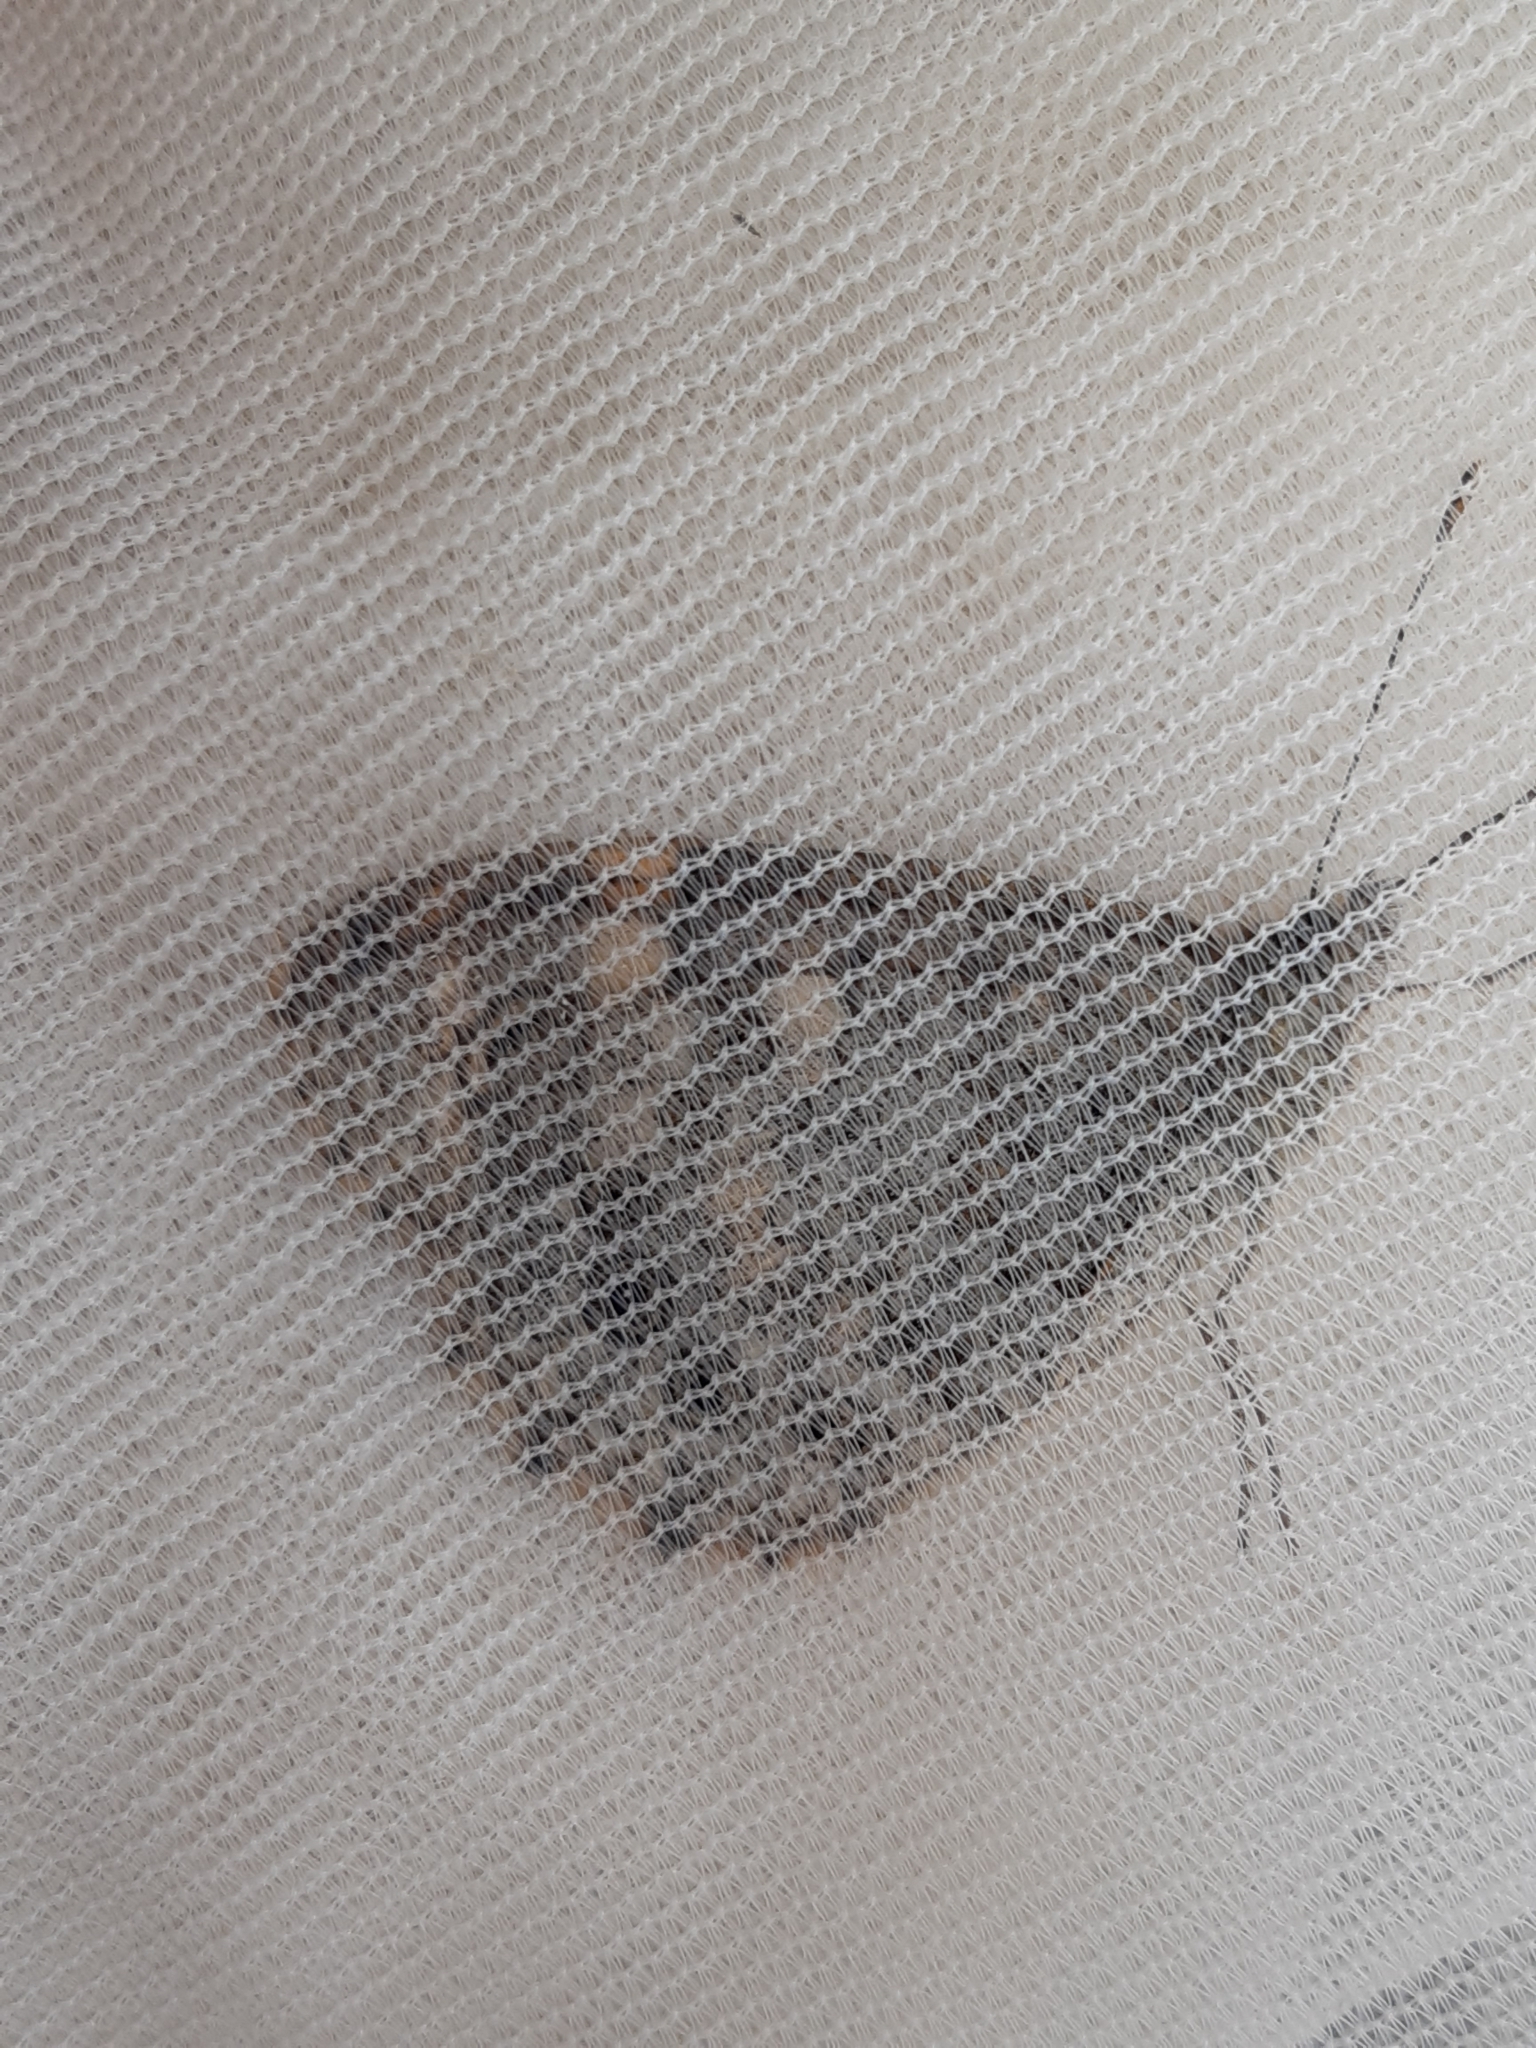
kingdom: Animalia
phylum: Arthropoda
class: Insecta
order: Lepidoptera
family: Nymphalidae
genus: Pararge
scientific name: Pararge Lasiommata megera
